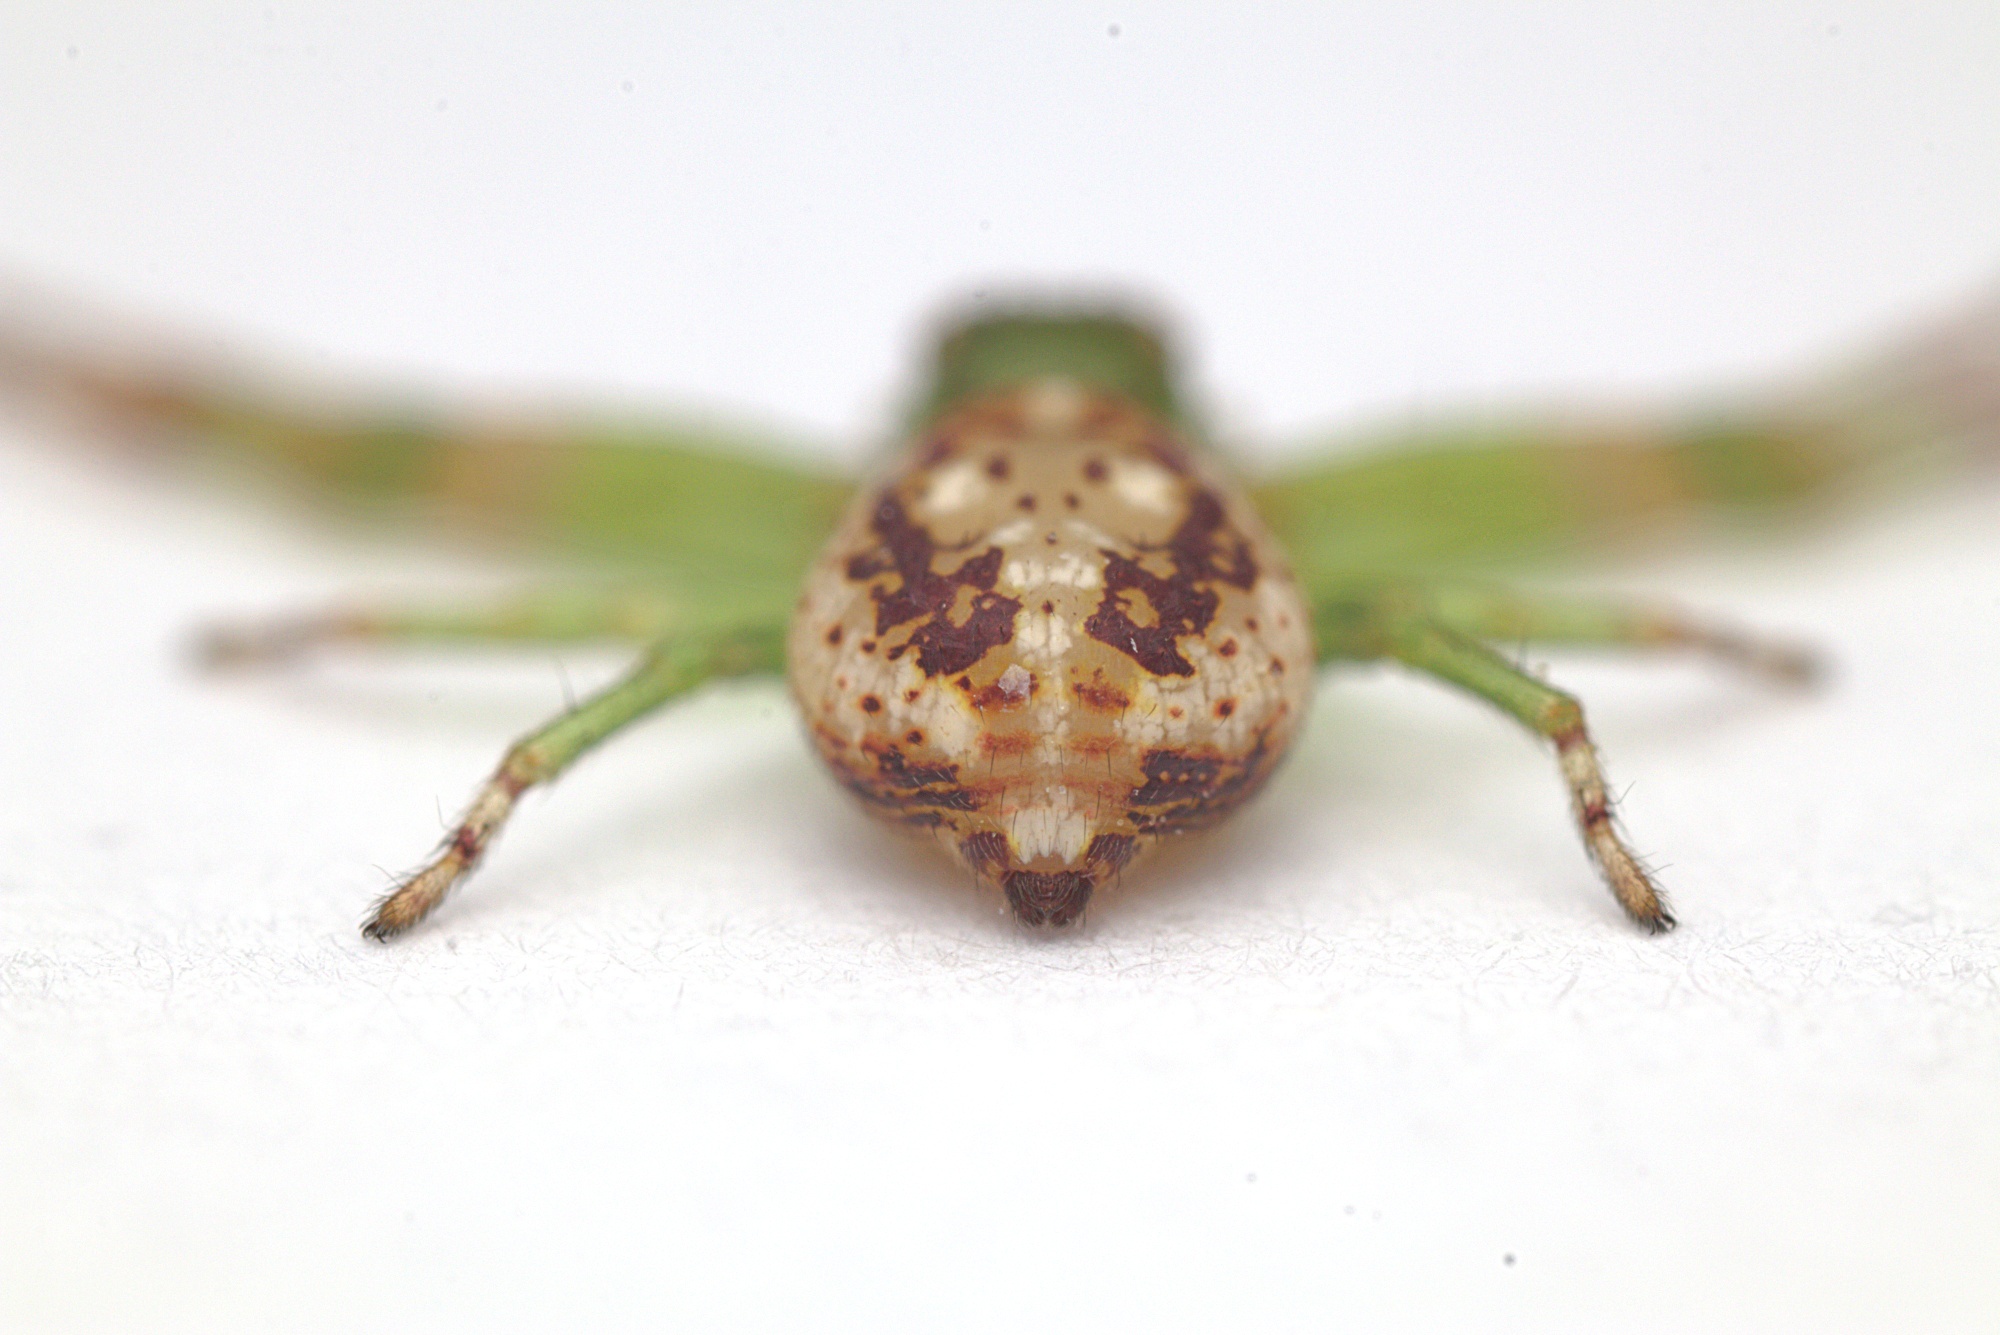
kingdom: Animalia
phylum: Arthropoda
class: Arachnida
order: Araneae
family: Thomisidae
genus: Diaea
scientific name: Diaea ambara
